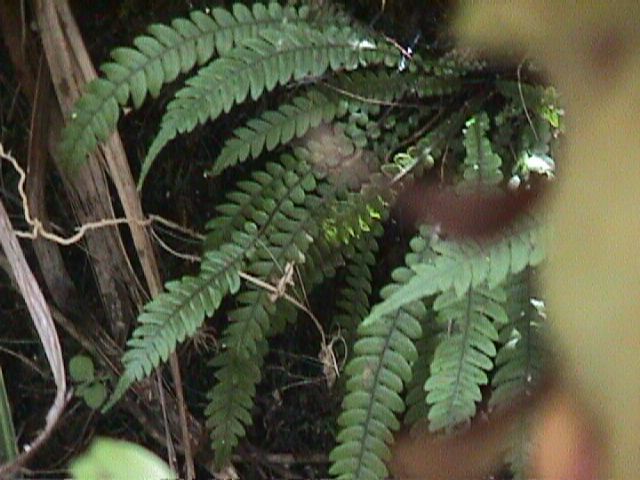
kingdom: Plantae
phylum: Tracheophyta
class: Polypodiopsida
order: Polypodiales
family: Blechnaceae
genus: Austroblechnum
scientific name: Austroblechnum lanceolatum
